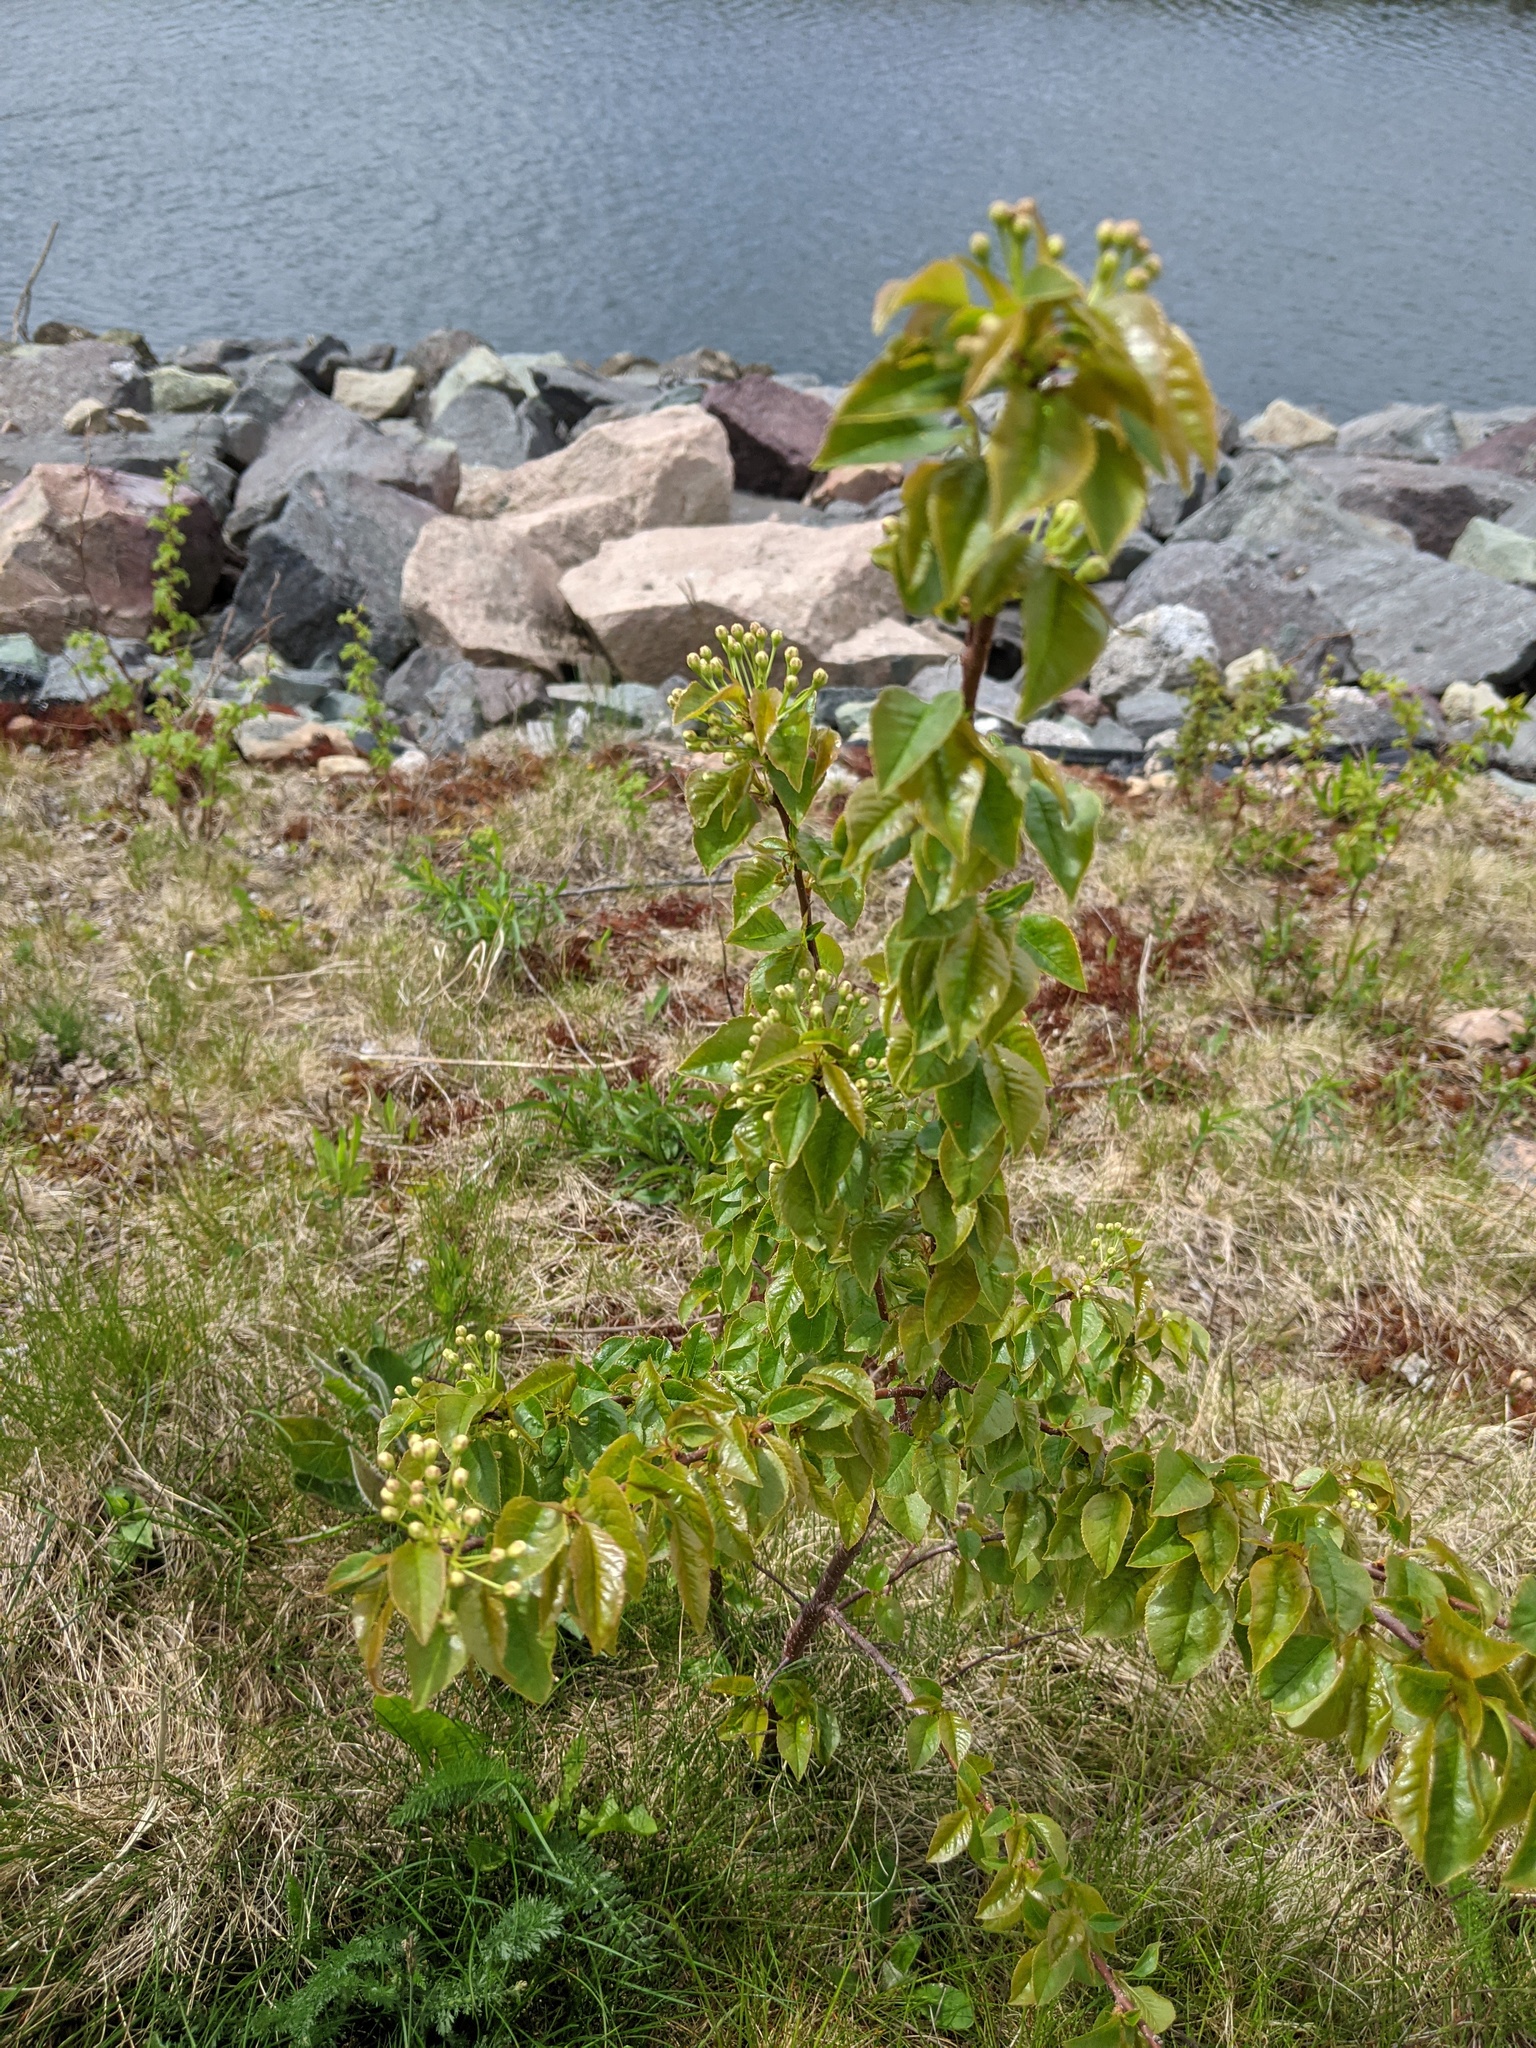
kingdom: Plantae
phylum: Tracheophyta
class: Magnoliopsida
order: Rosales
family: Rosaceae
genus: Prunus
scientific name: Prunus pensylvanica
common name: Pin cherry
